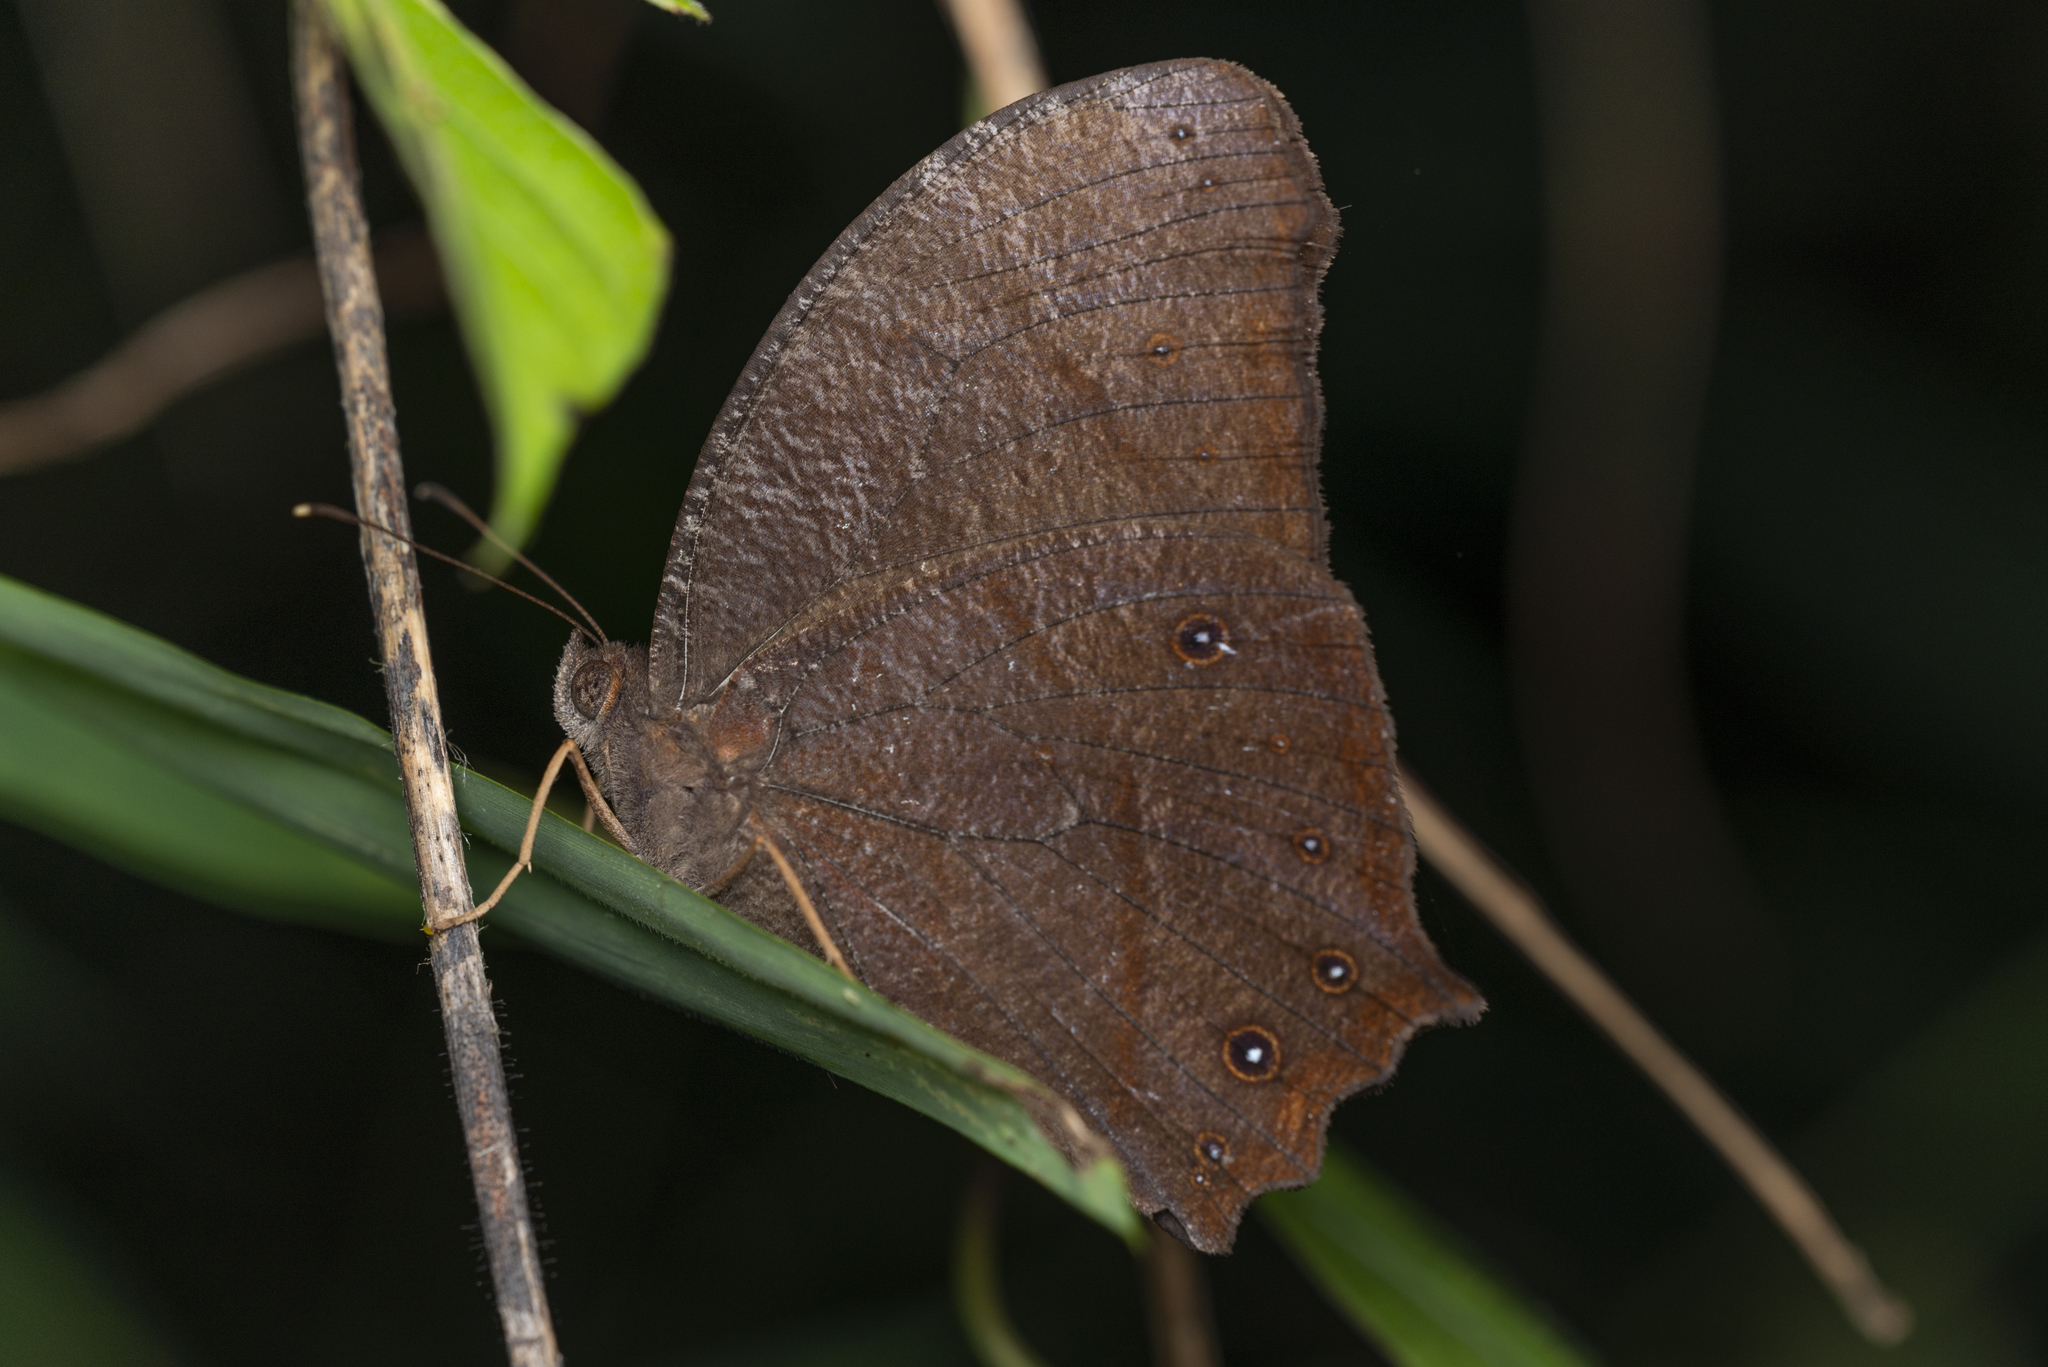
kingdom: Animalia
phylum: Arthropoda
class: Insecta
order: Lepidoptera
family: Nymphalidae
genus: Melanitis
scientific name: Melanitis phedima
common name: Dark evening brown
